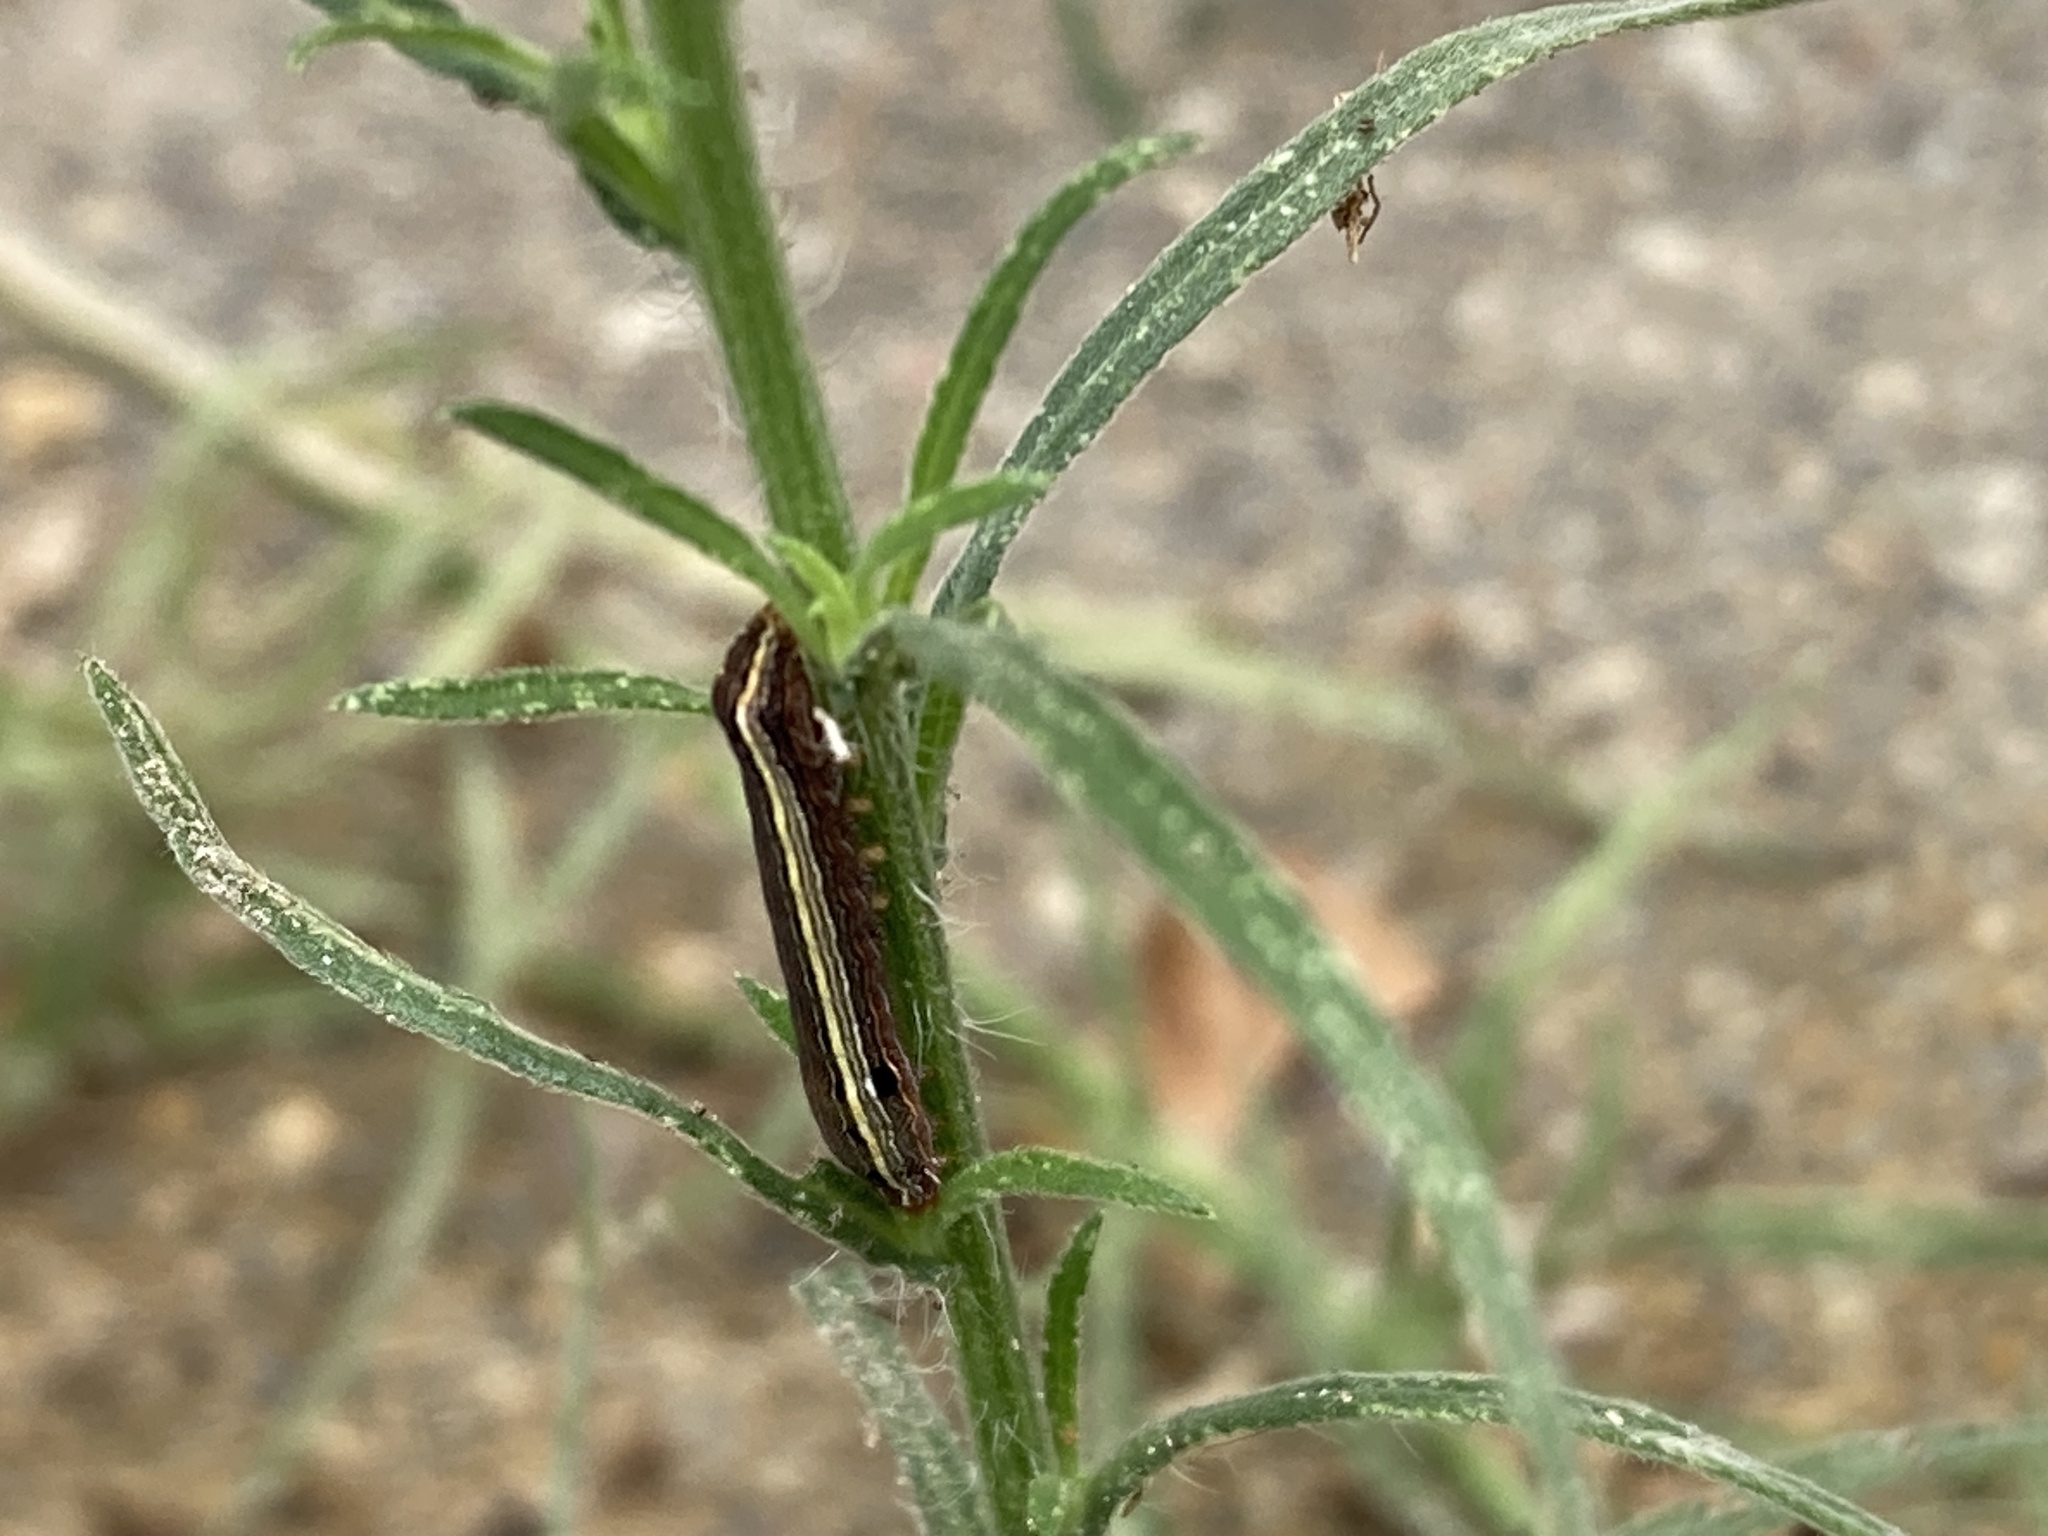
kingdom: Animalia
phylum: Arthropoda
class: Insecta
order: Lepidoptera
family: Noctuidae
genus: Spodoptera
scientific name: Spodoptera ornithogalli
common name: Yellow-striped armyworm
